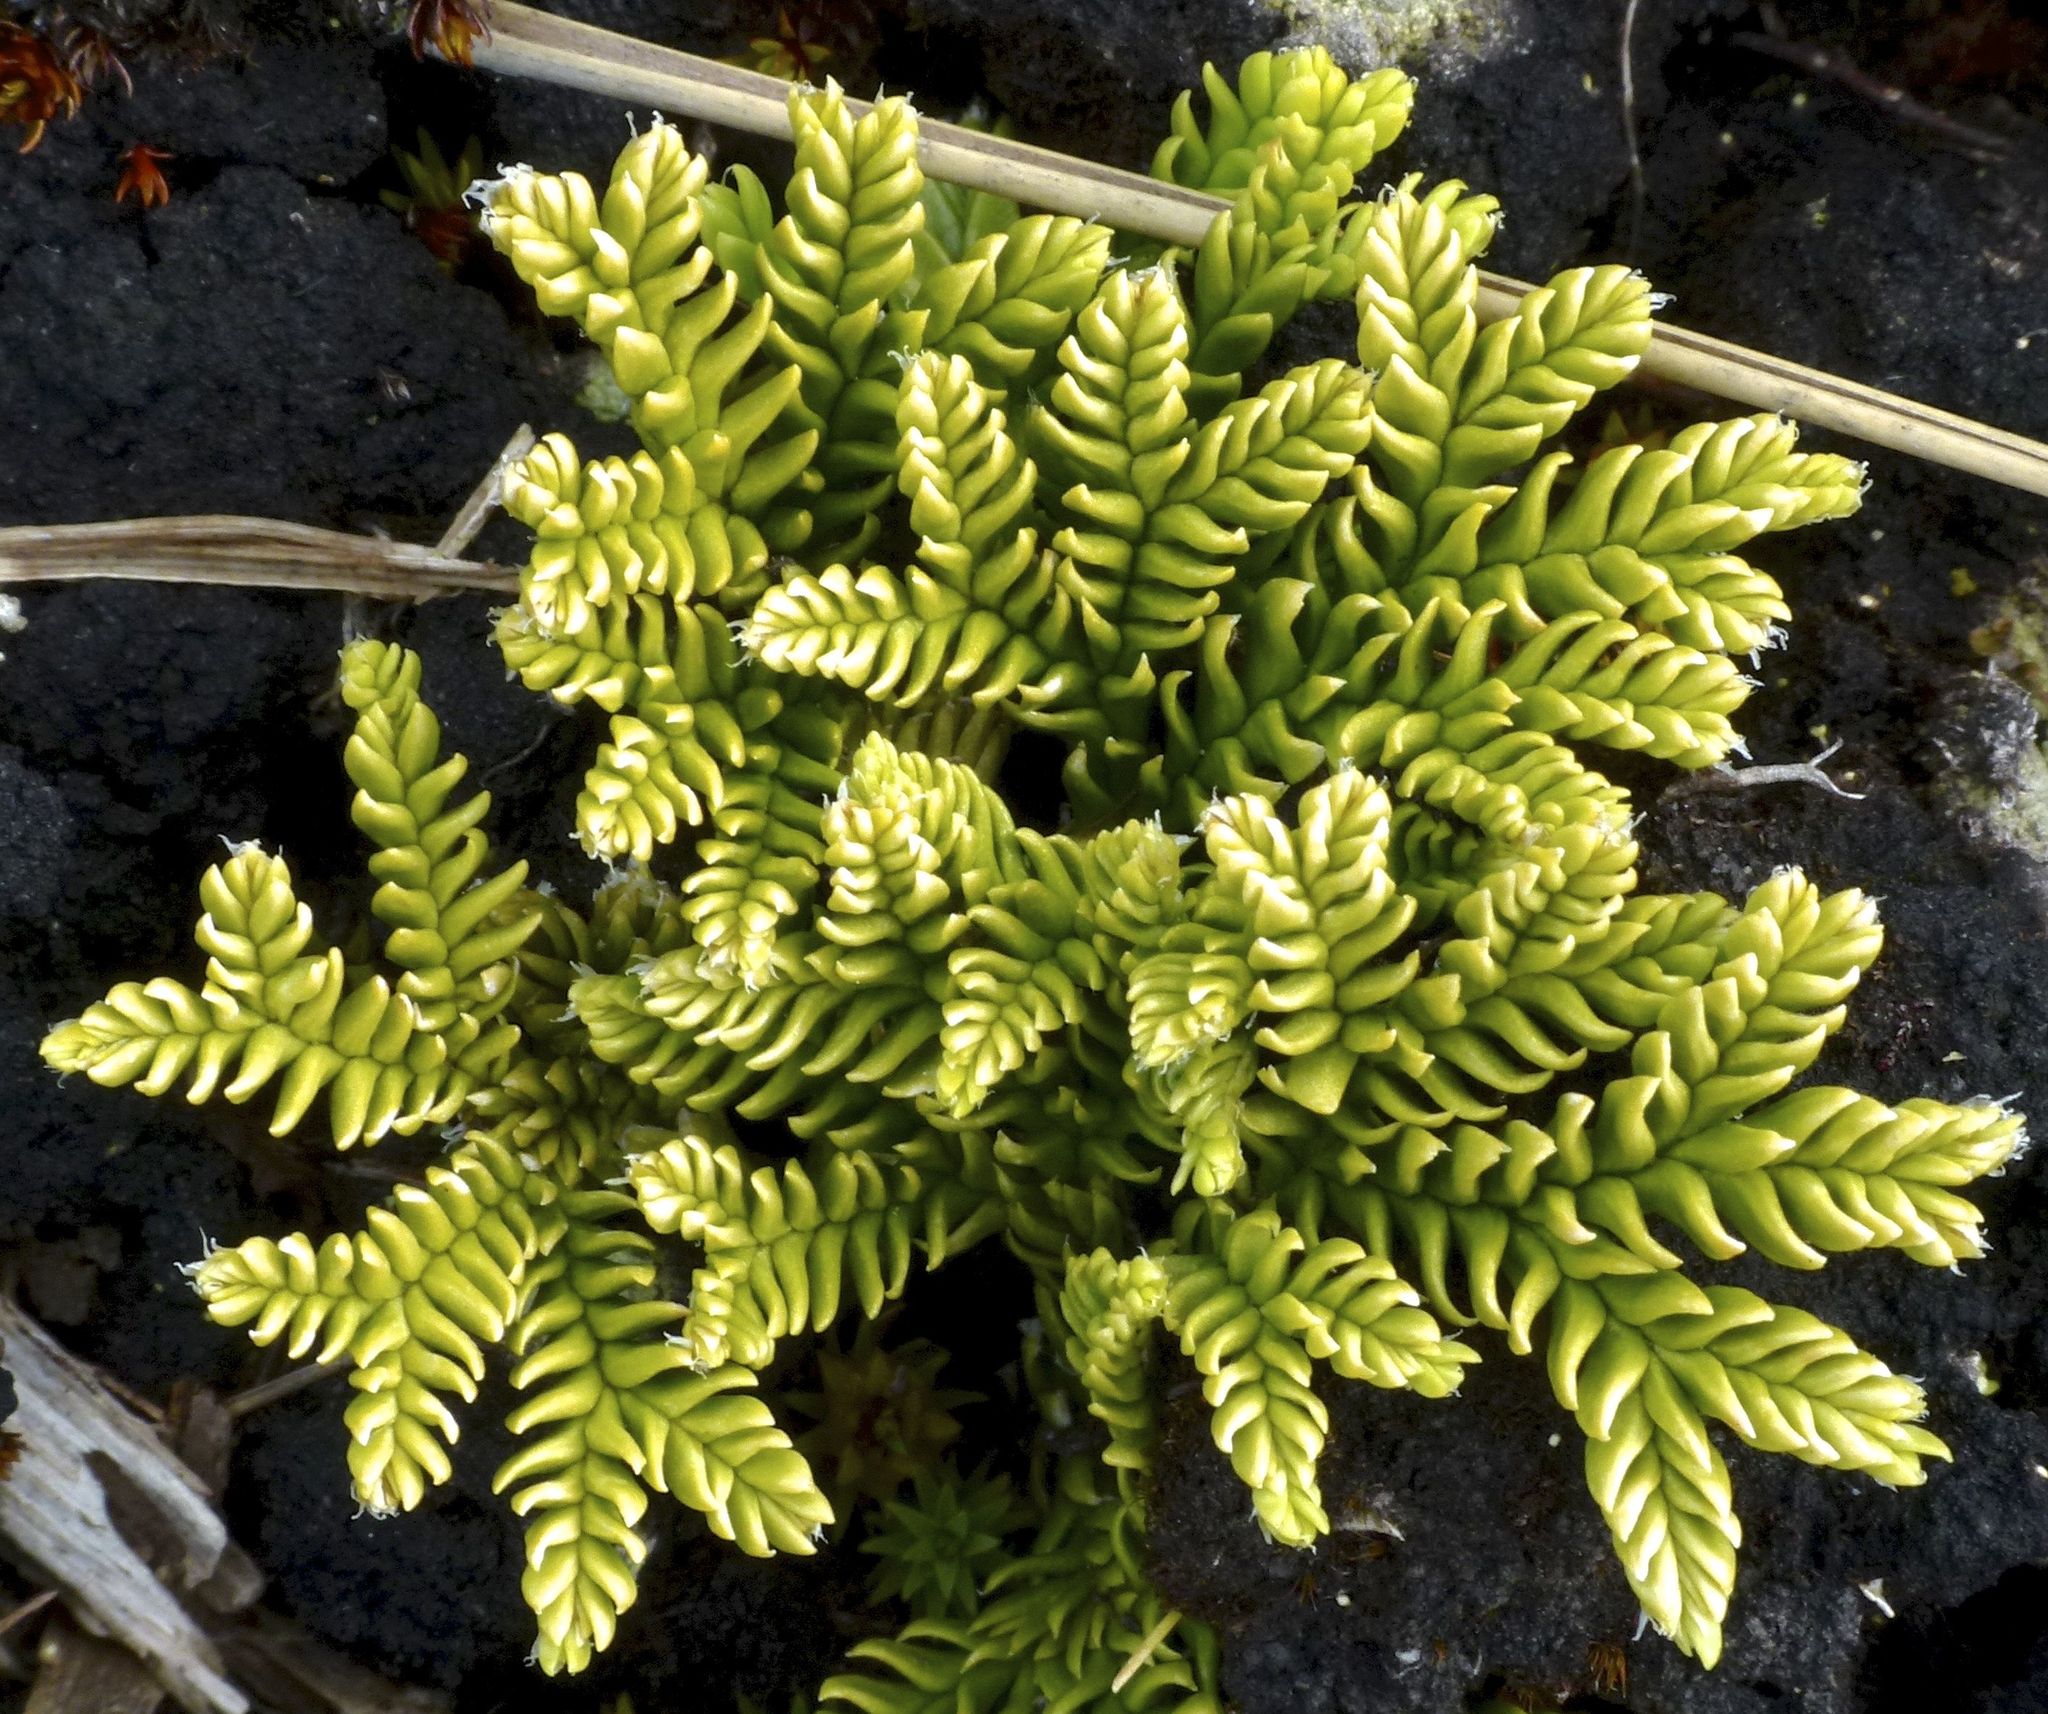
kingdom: Plantae
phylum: Tracheophyta
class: Lycopodiopsida
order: Lycopodiales
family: Lycopodiaceae
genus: Diphasium
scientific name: Diphasium scariosum
